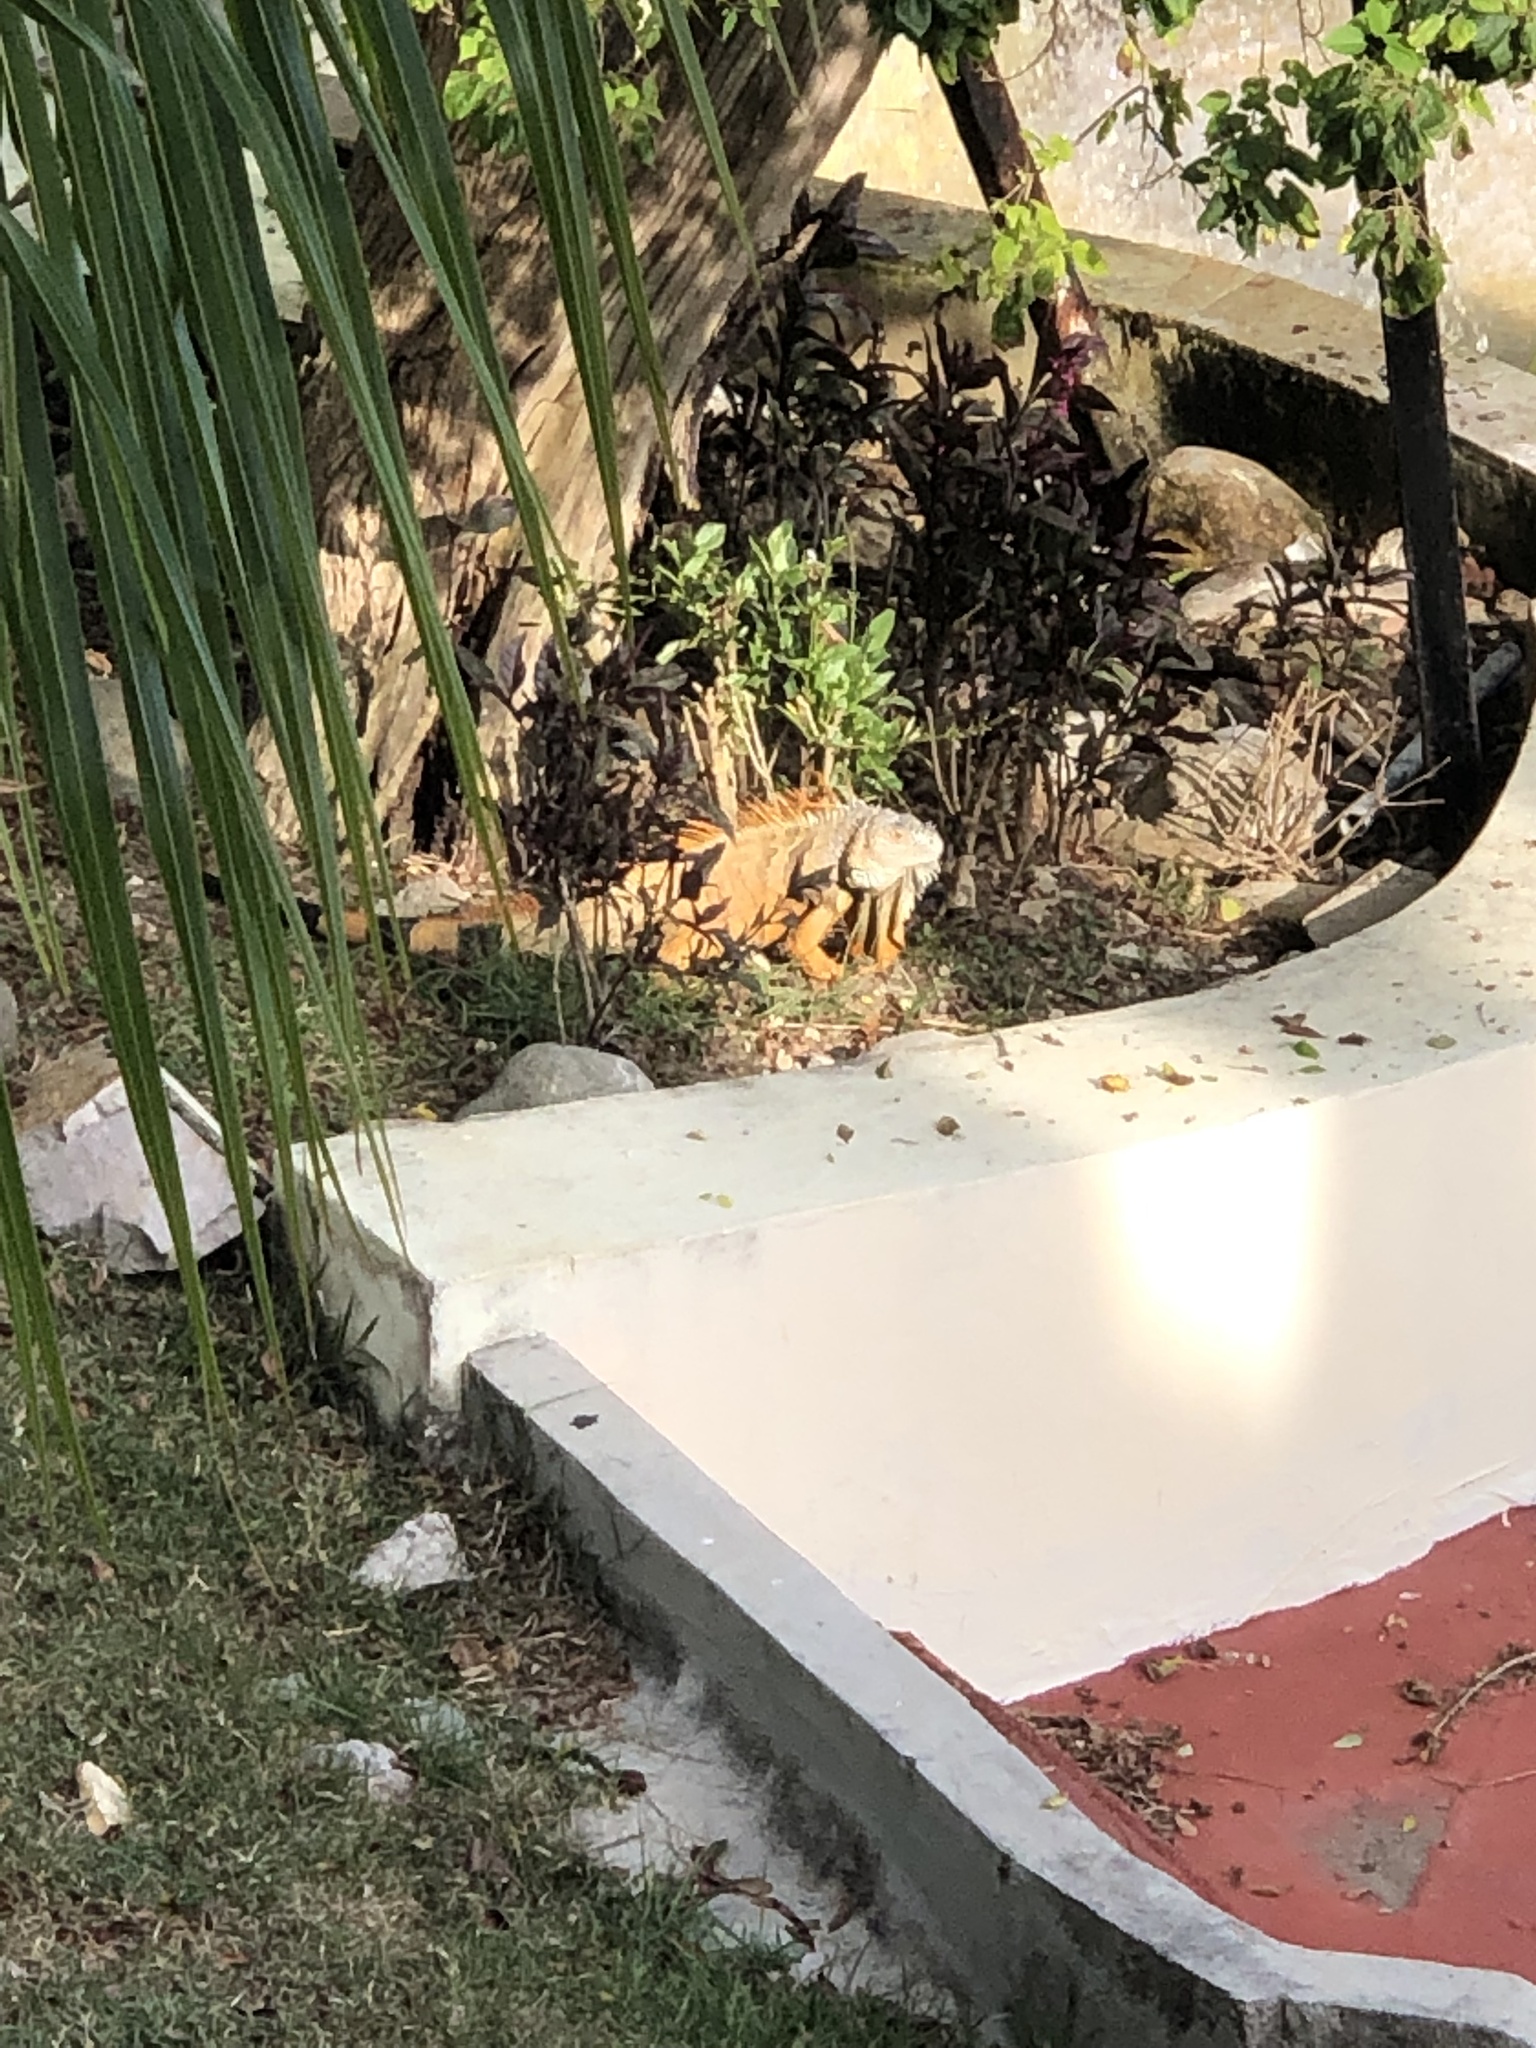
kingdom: Animalia
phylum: Chordata
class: Squamata
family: Iguanidae
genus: Iguana
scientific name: Iguana iguana
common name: Green iguana
